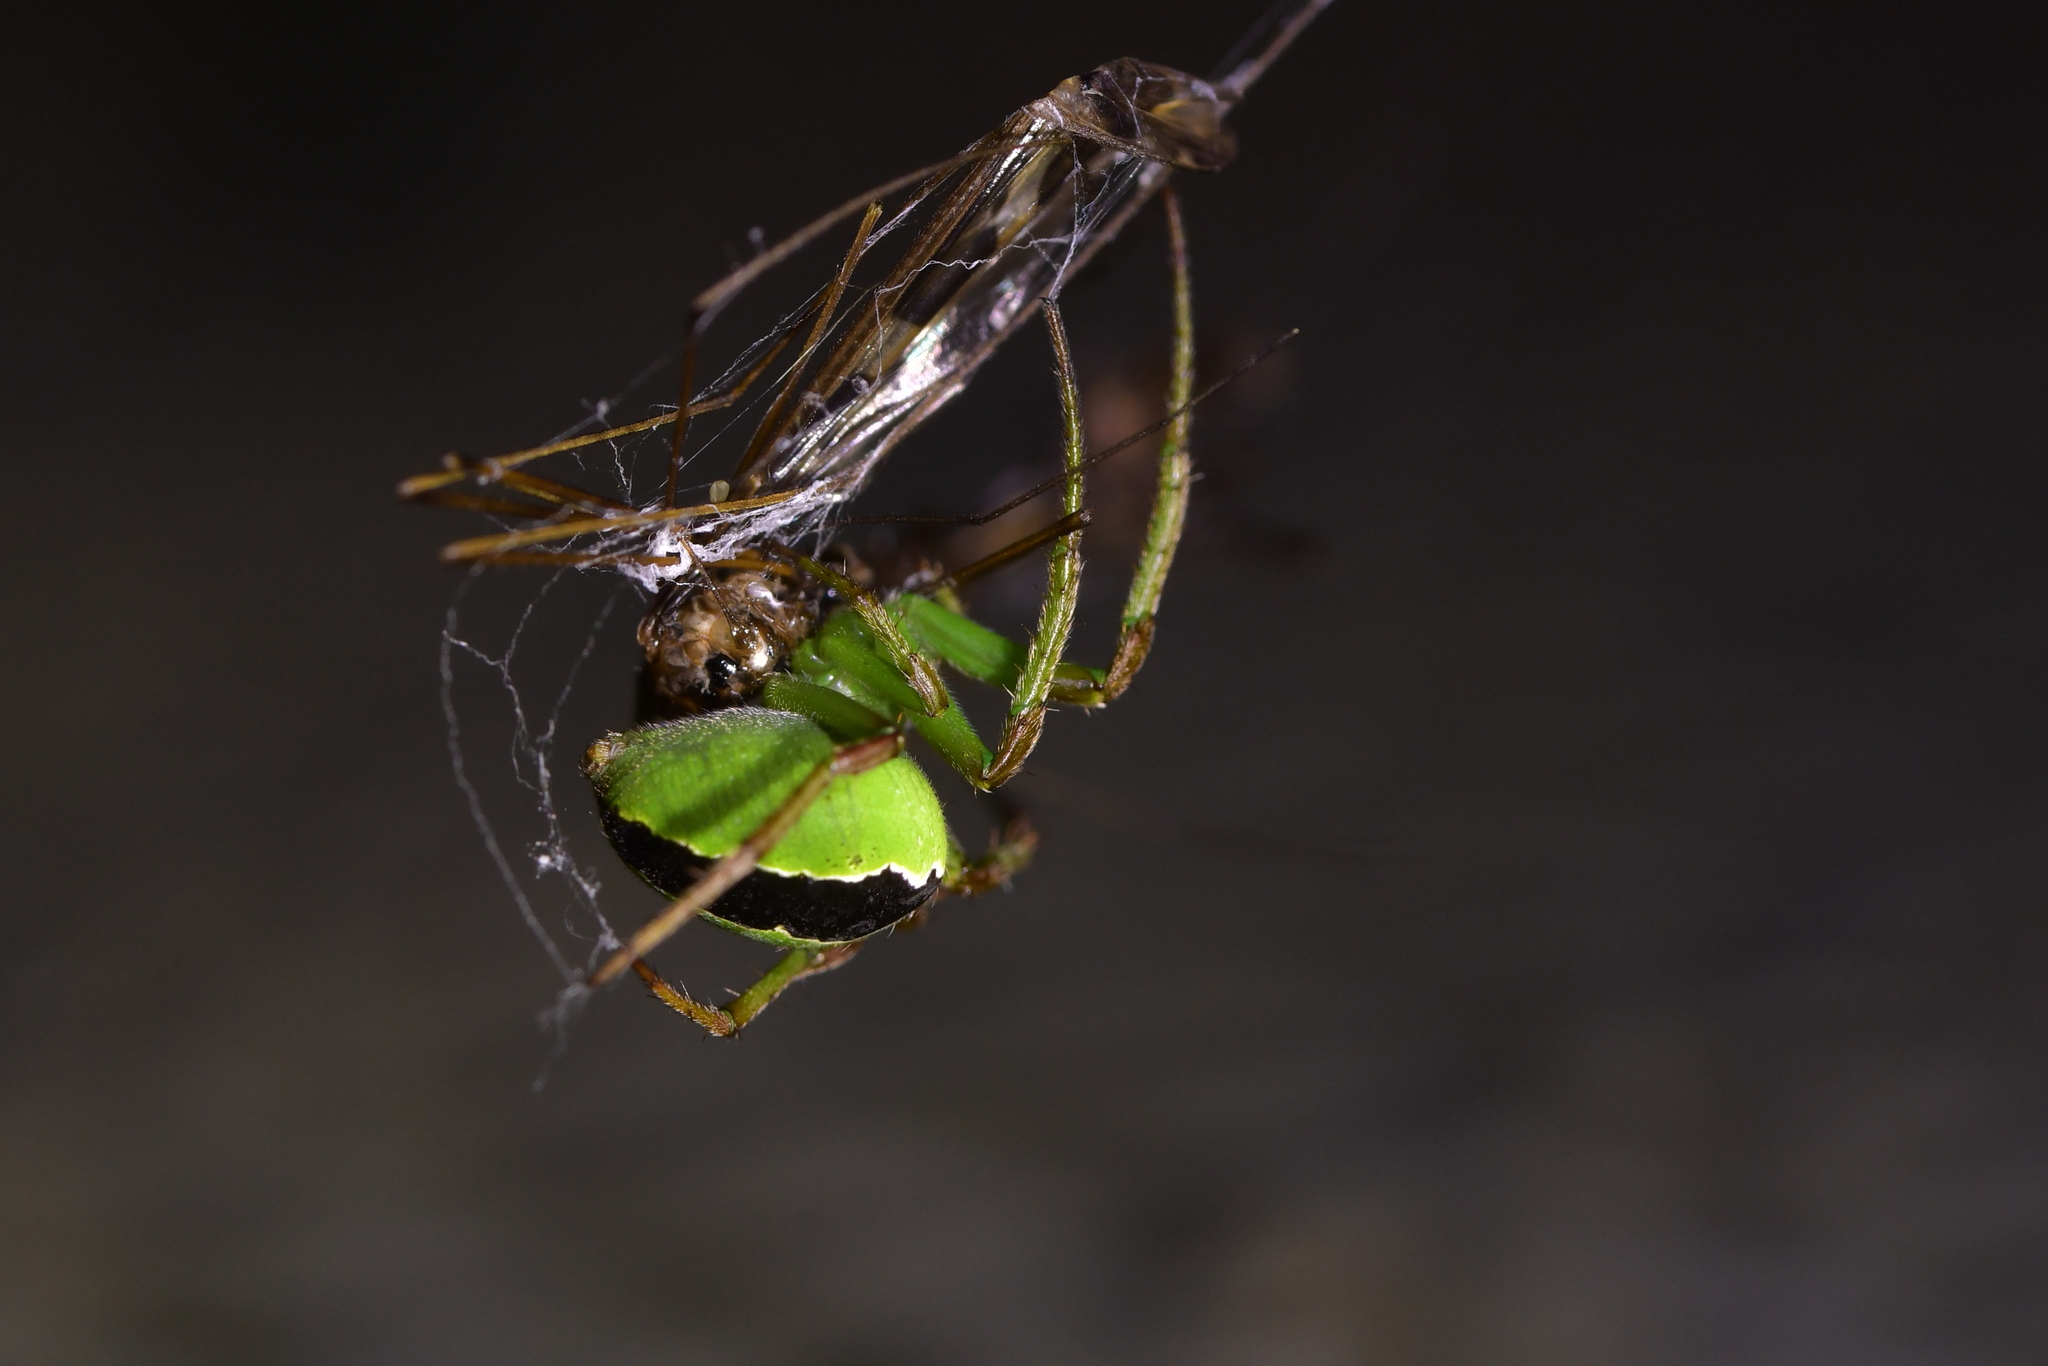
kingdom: Animalia
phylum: Arthropoda
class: Arachnida
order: Araneae
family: Araneidae
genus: Colaranea
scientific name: Colaranea melanoviridis
